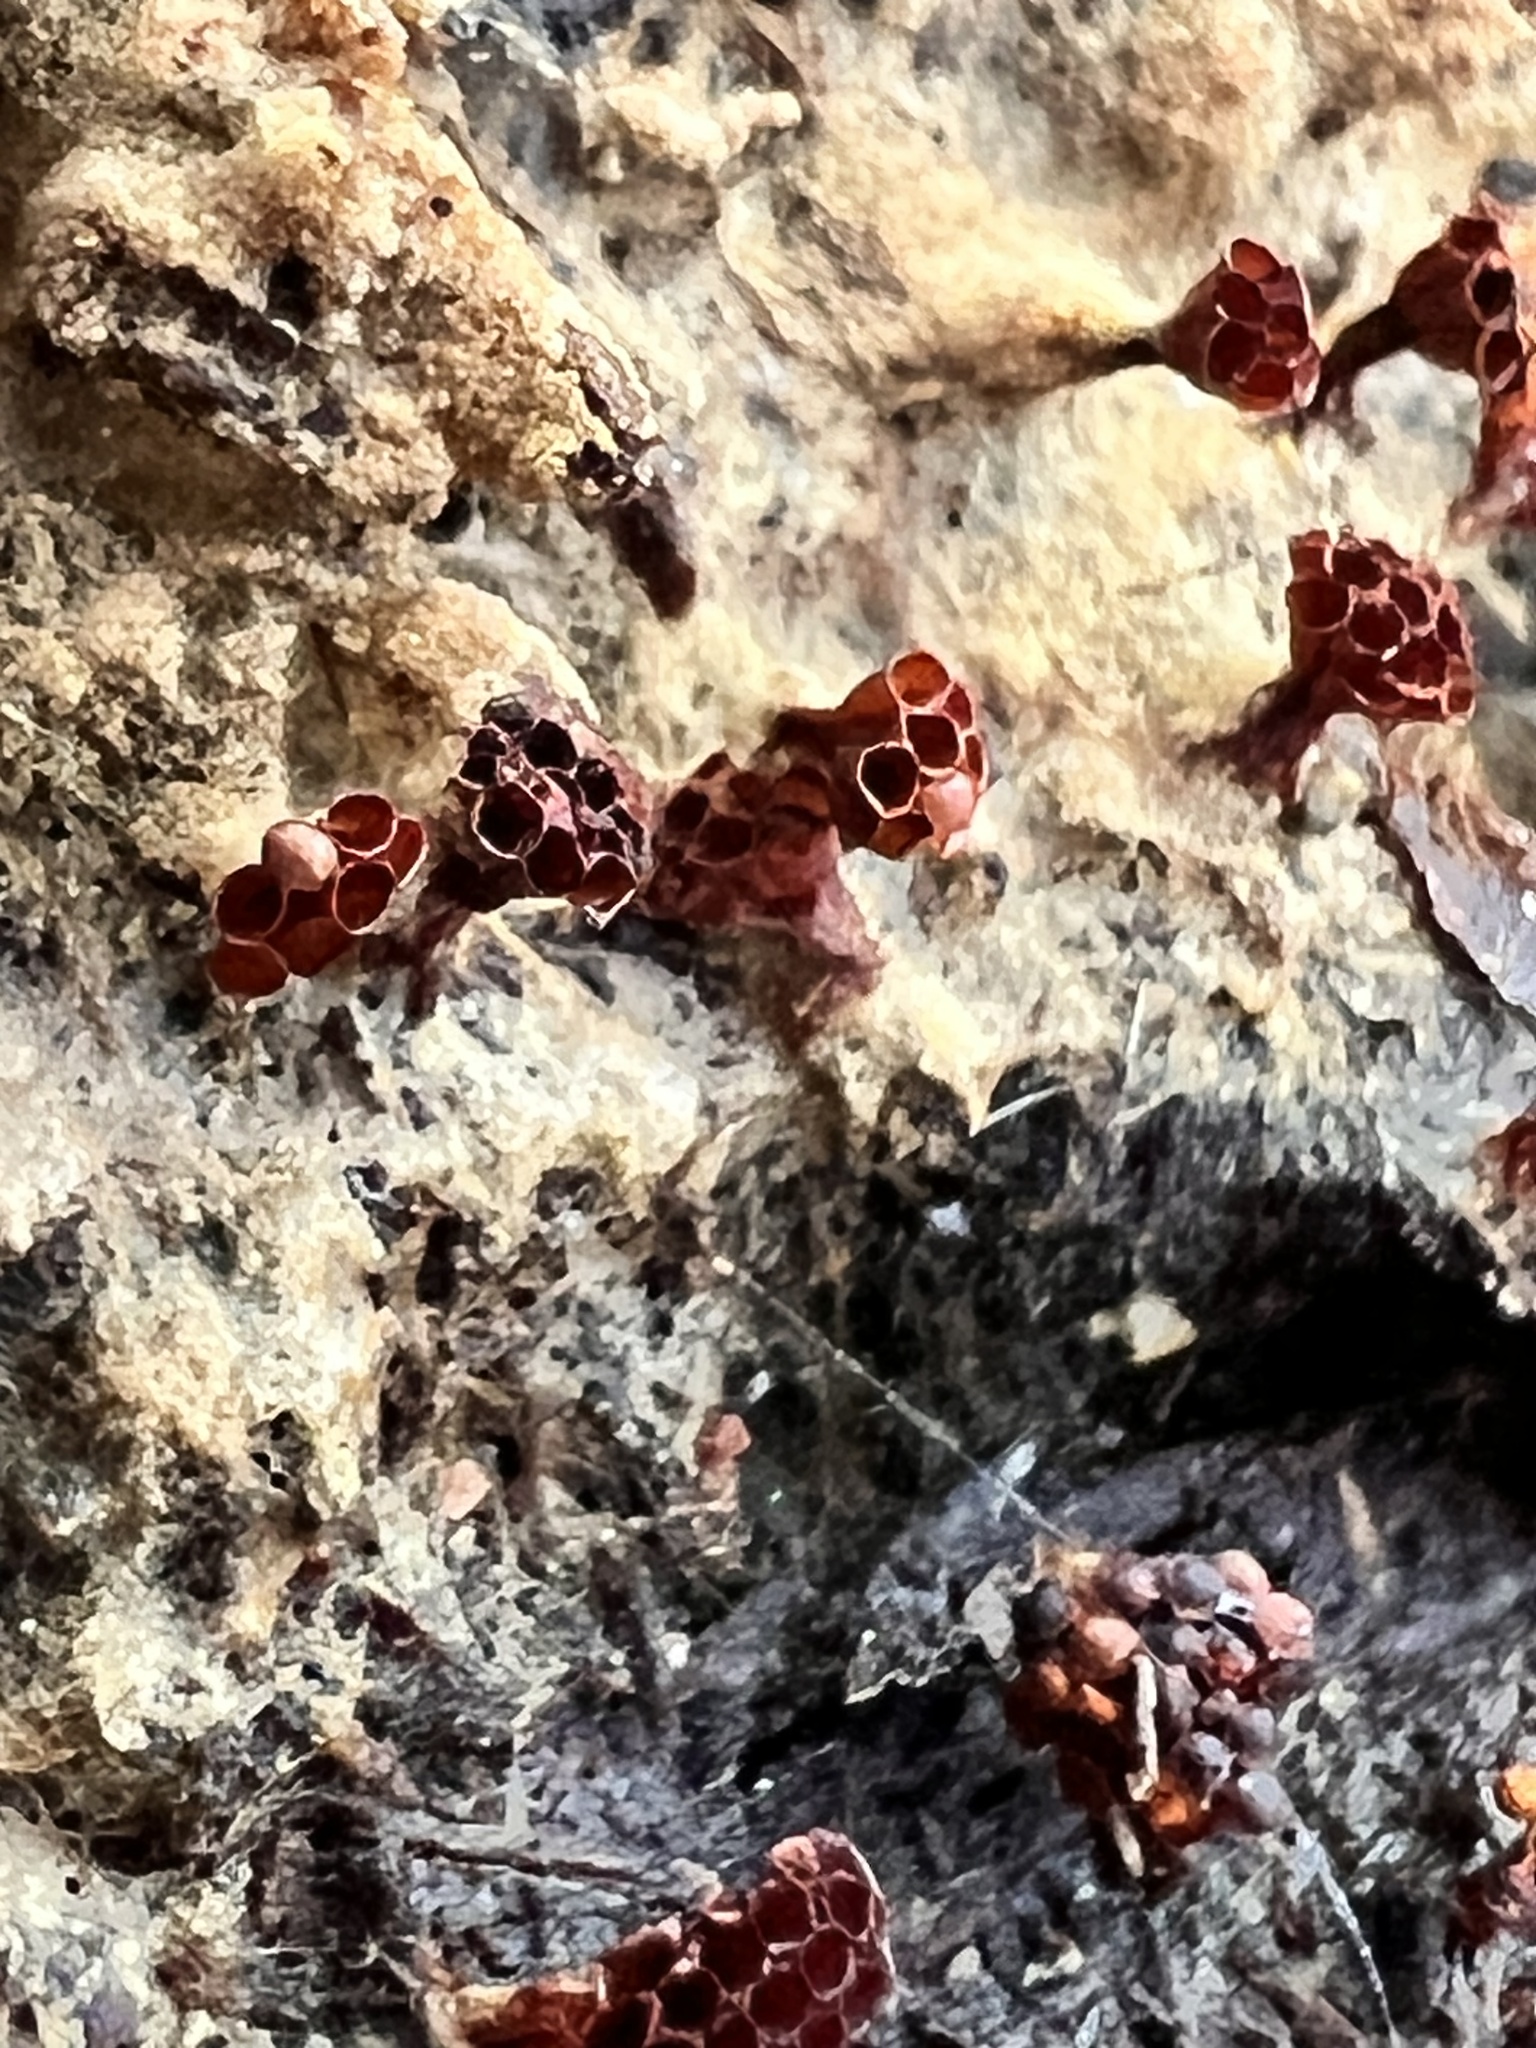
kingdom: Protozoa
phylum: Mycetozoa
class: Myxomycetes
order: Trichiales
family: Trichiaceae
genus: Metatrichia
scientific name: Metatrichia vesparia
